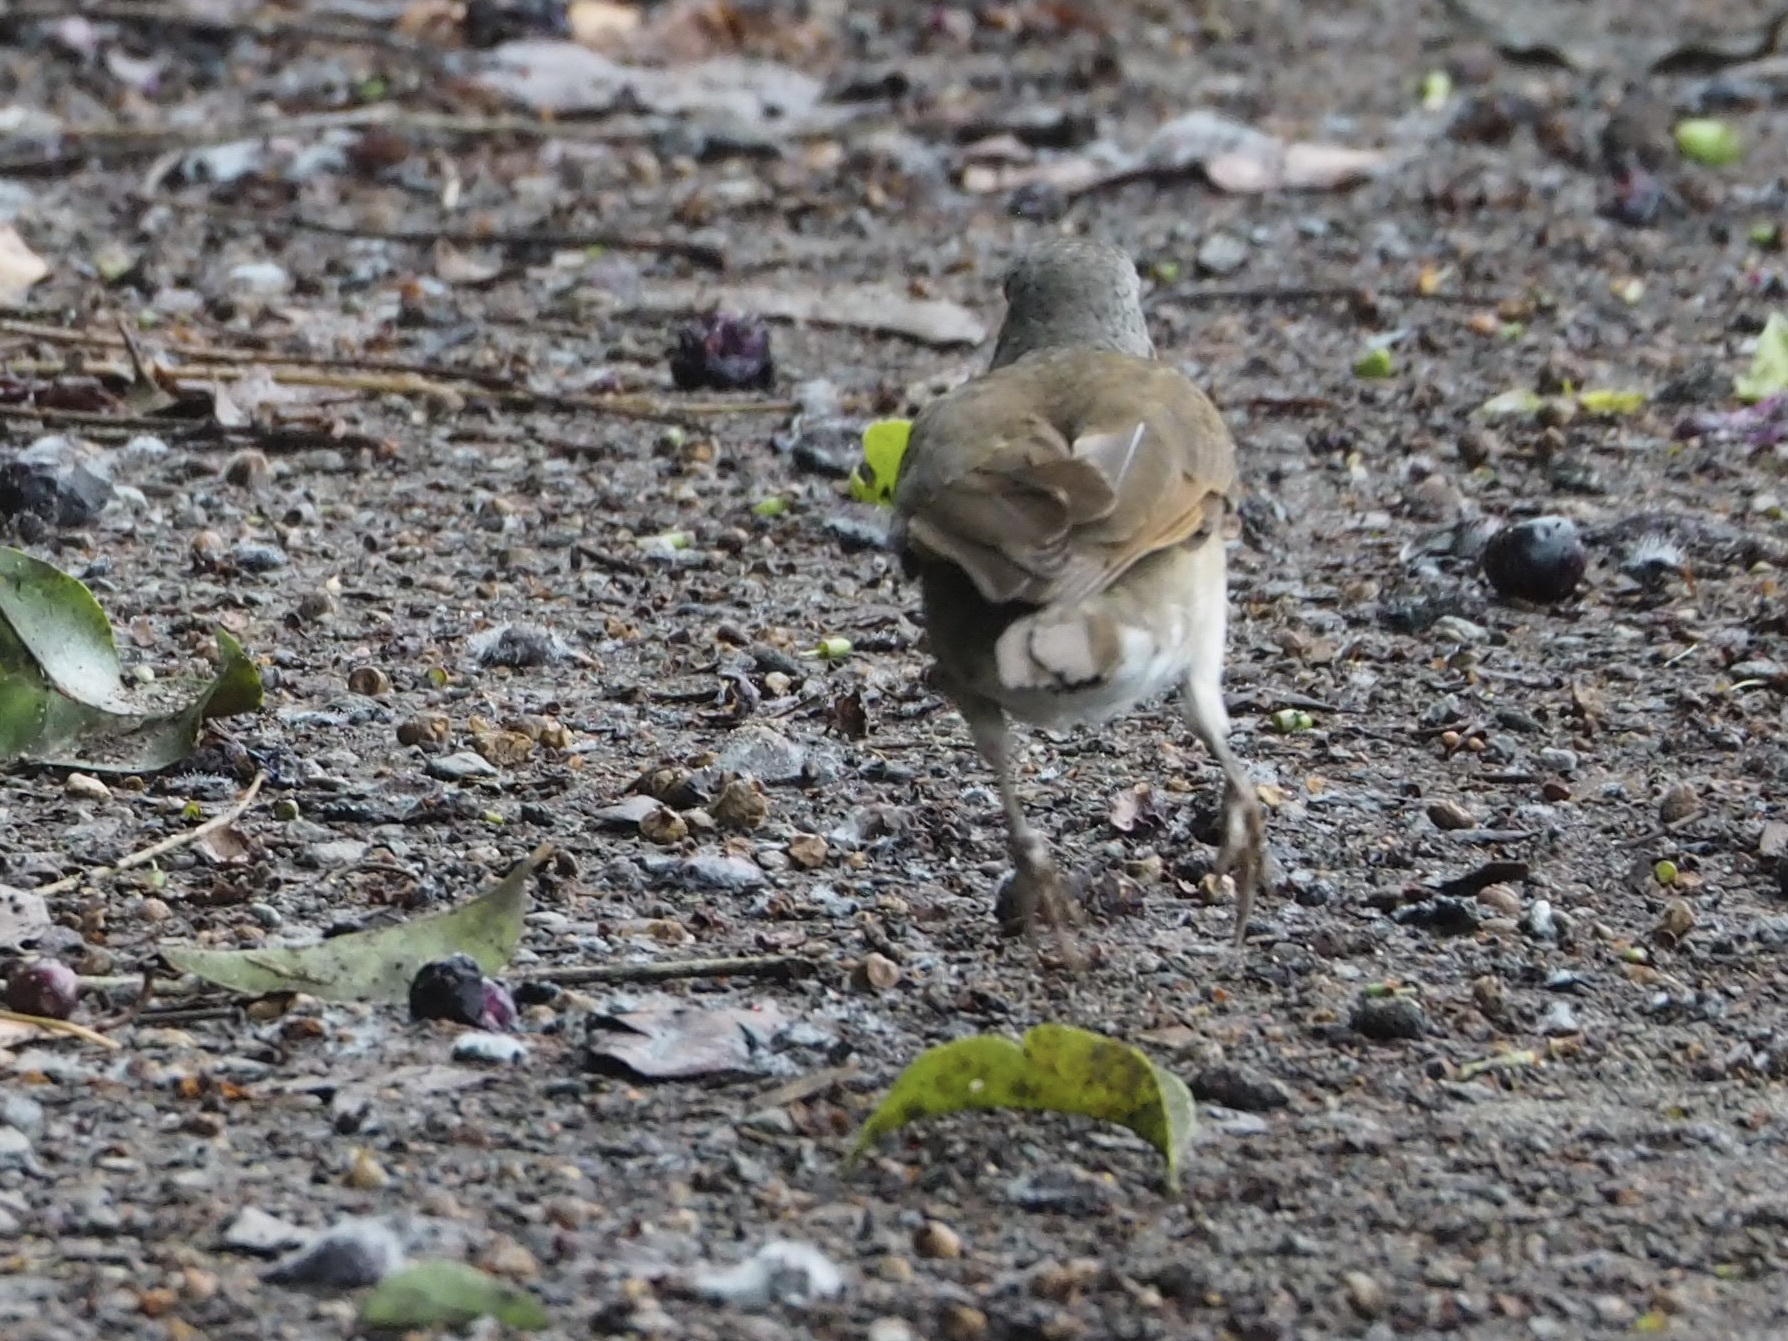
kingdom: Animalia
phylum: Chordata
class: Aves
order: Passeriformes
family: Turdidae
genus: Turdus
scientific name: Turdus leucomelas
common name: Pale-breasted thrush
